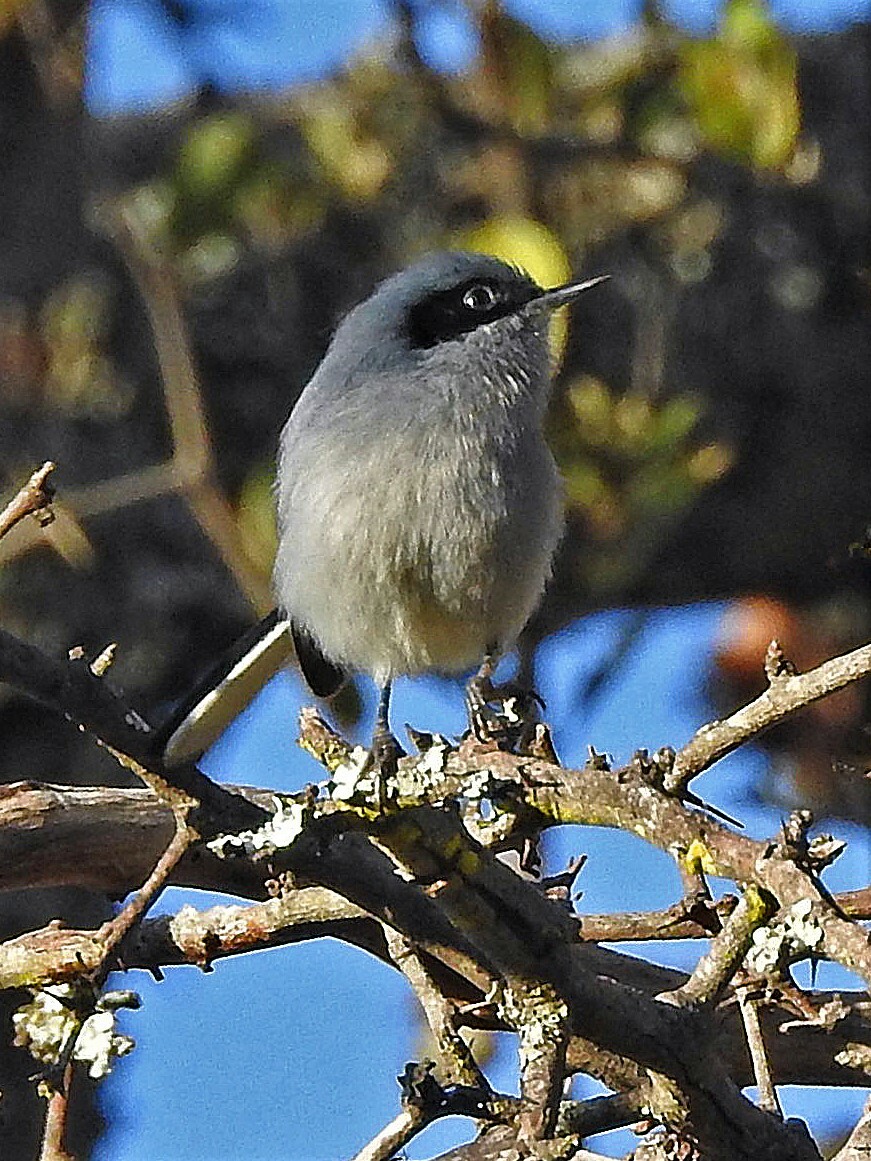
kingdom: Animalia
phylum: Chordata
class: Aves
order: Passeriformes
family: Polioptilidae
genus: Polioptila
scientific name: Polioptila dumicola
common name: Masked gnatcatcher
